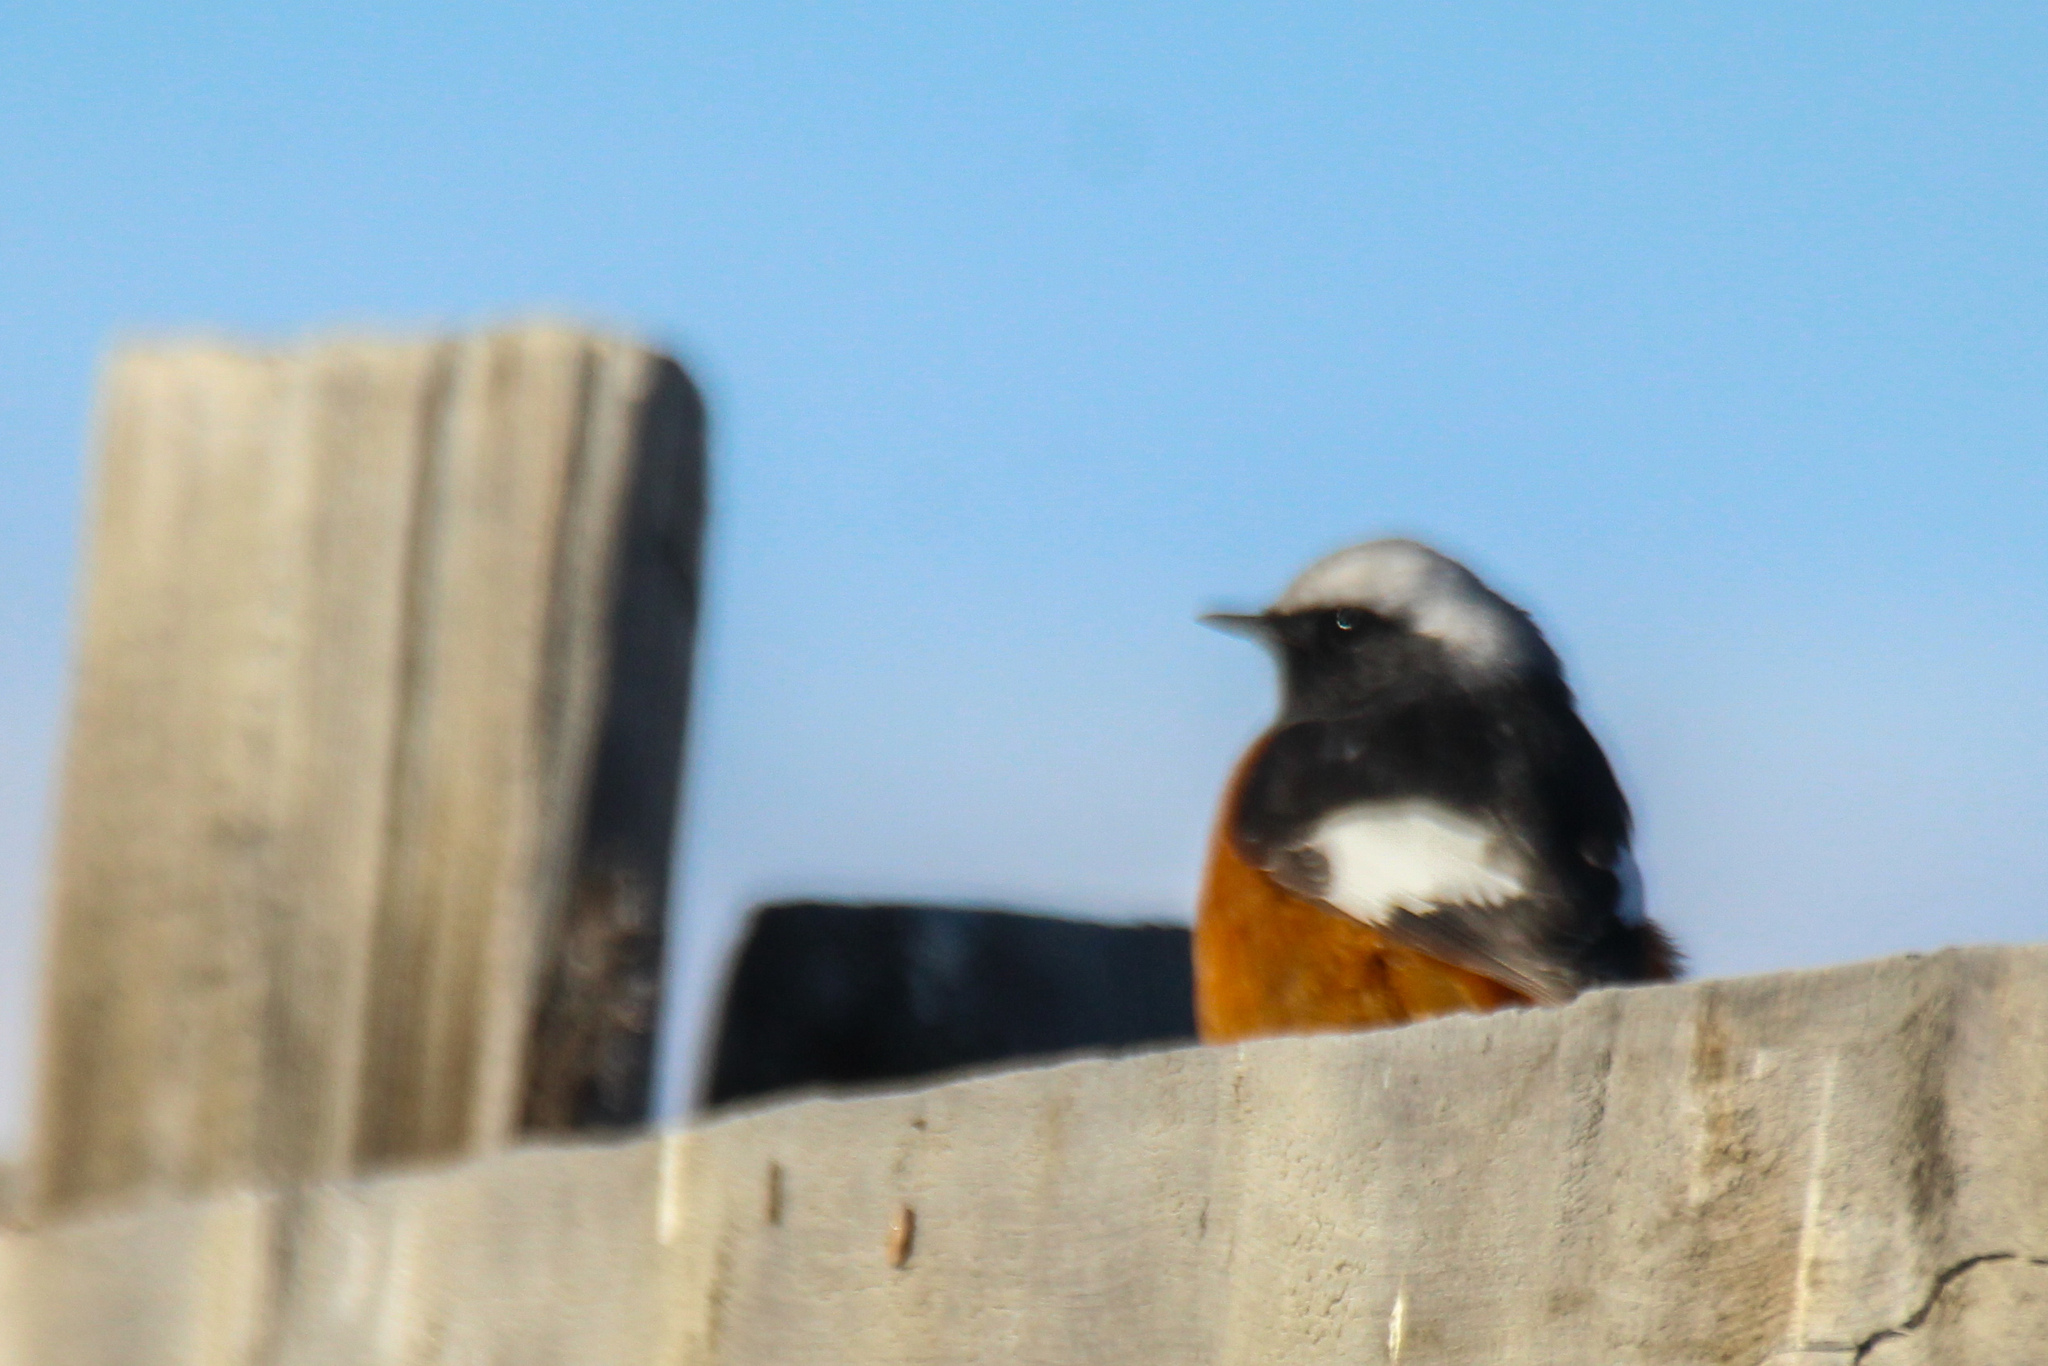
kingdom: Animalia
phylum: Chordata
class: Aves
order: Passeriformes
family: Muscicapidae
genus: Phoenicurus
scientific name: Phoenicurus erythrogastrus
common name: Güldenstädt's redstart
